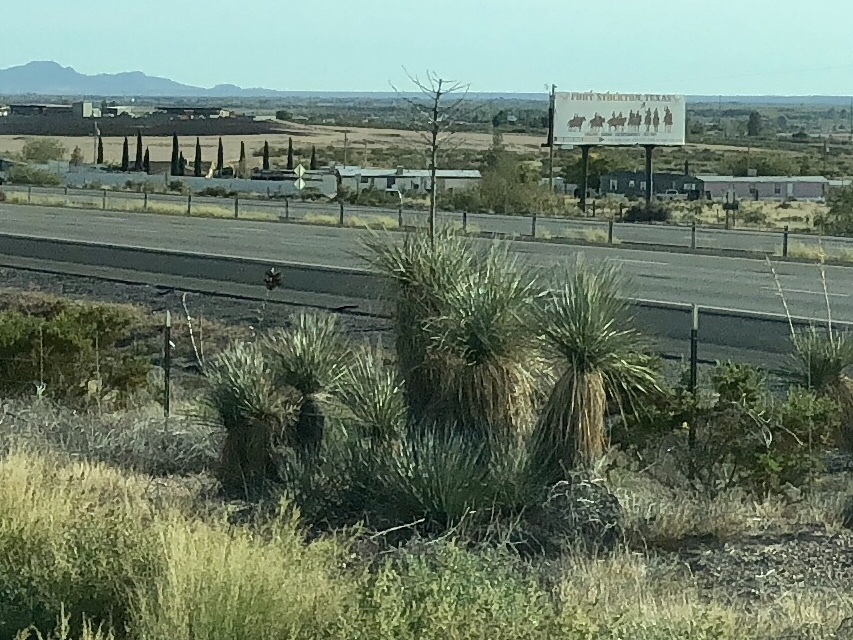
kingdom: Plantae
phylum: Tracheophyta
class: Liliopsida
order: Asparagales
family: Asparagaceae
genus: Yucca
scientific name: Yucca elata
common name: Palmella
